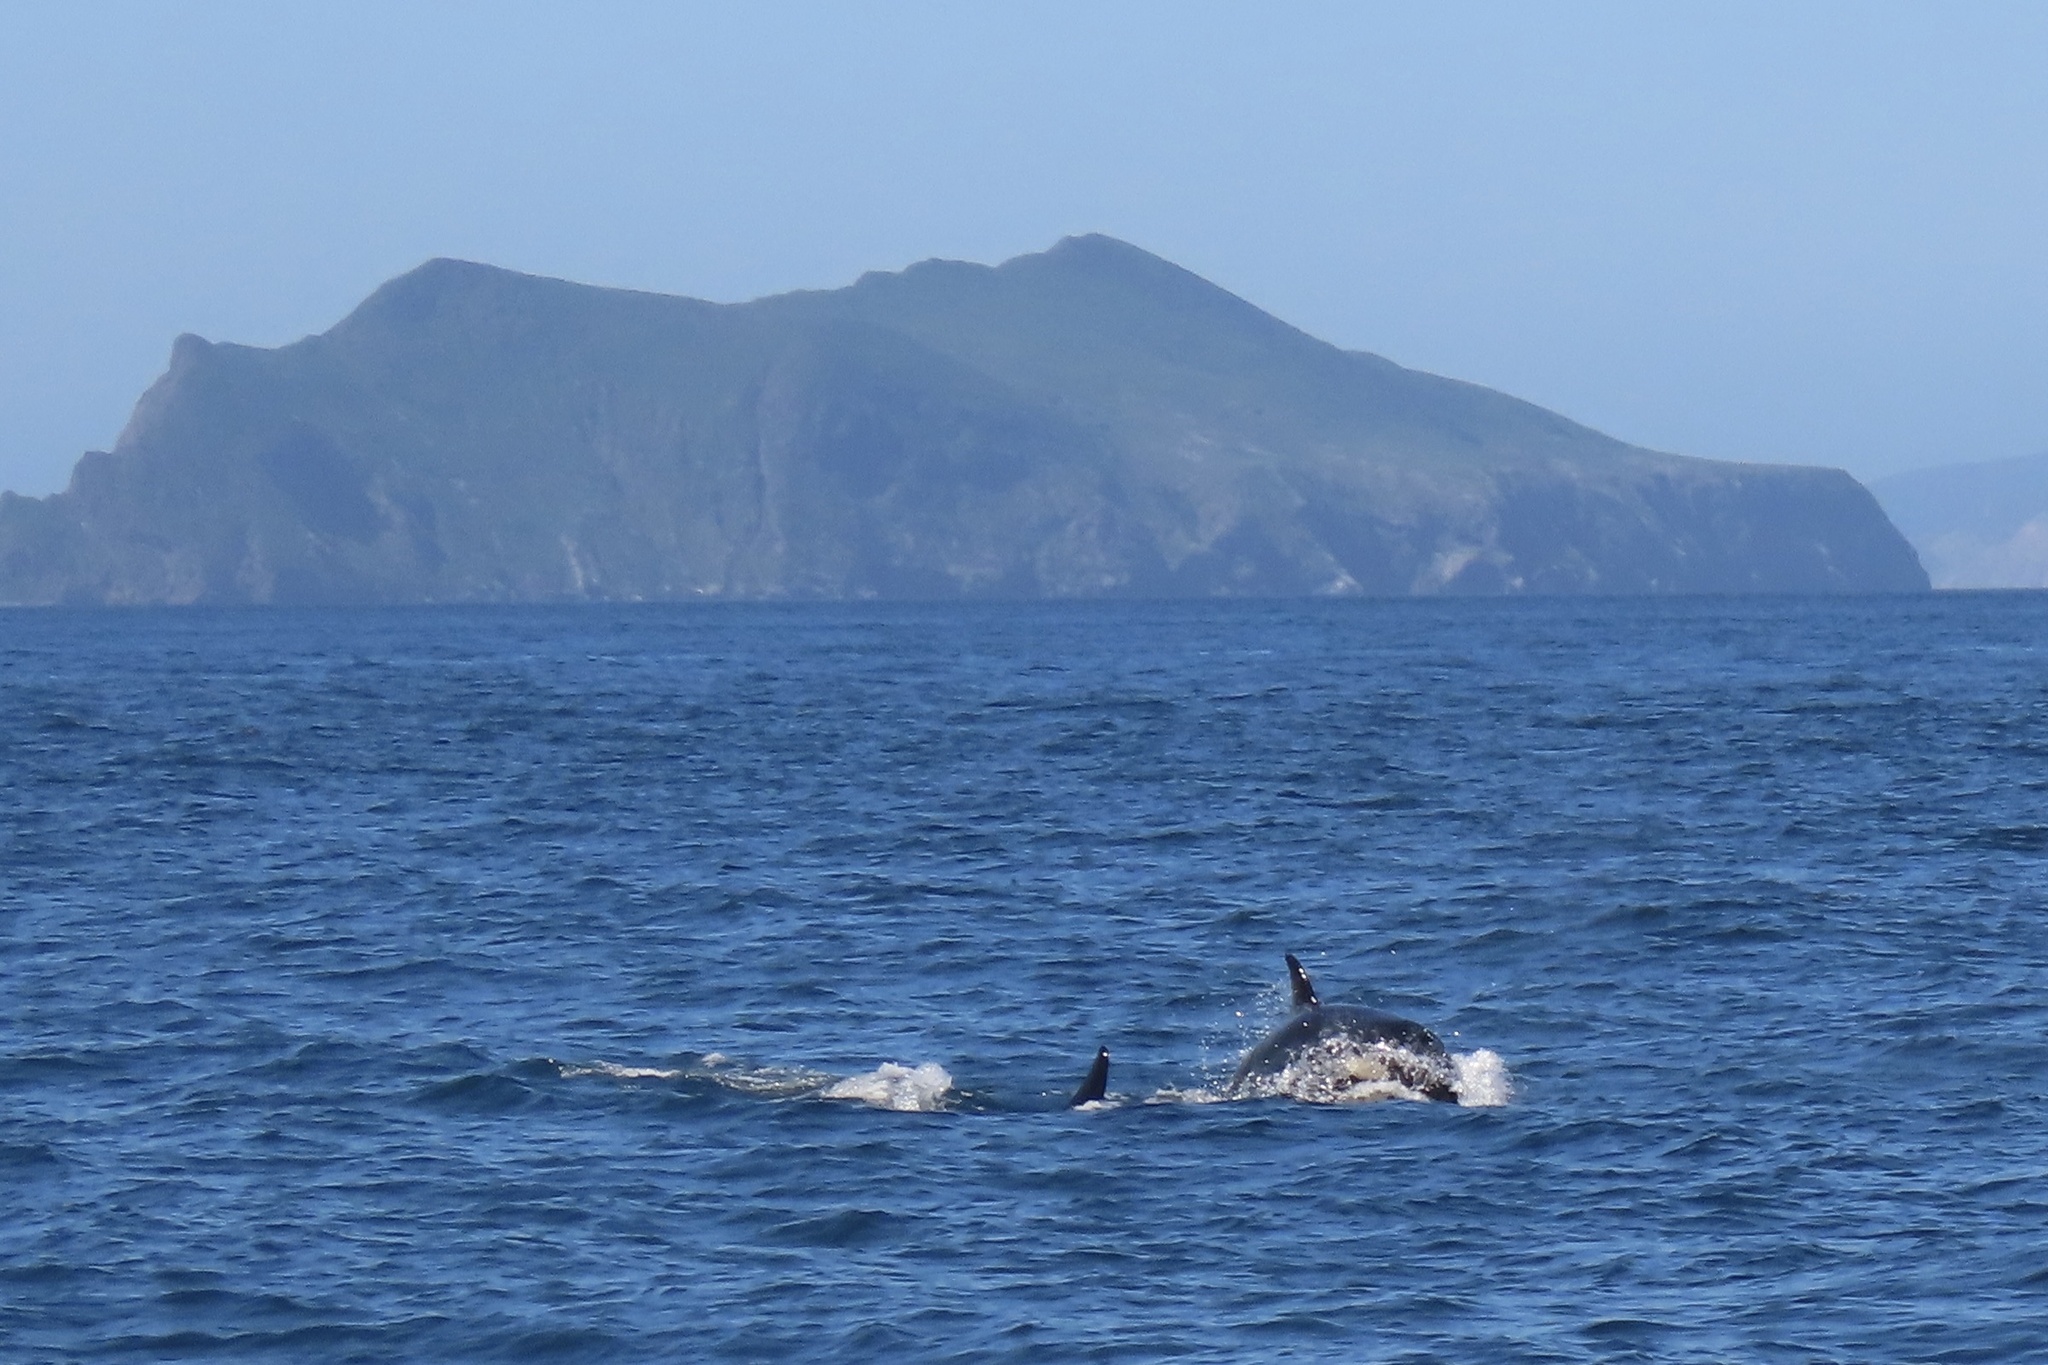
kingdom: Animalia
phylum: Chordata
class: Mammalia
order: Cetacea
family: Delphinidae
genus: Orcinus
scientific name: Orcinus orca
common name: Killer whale
